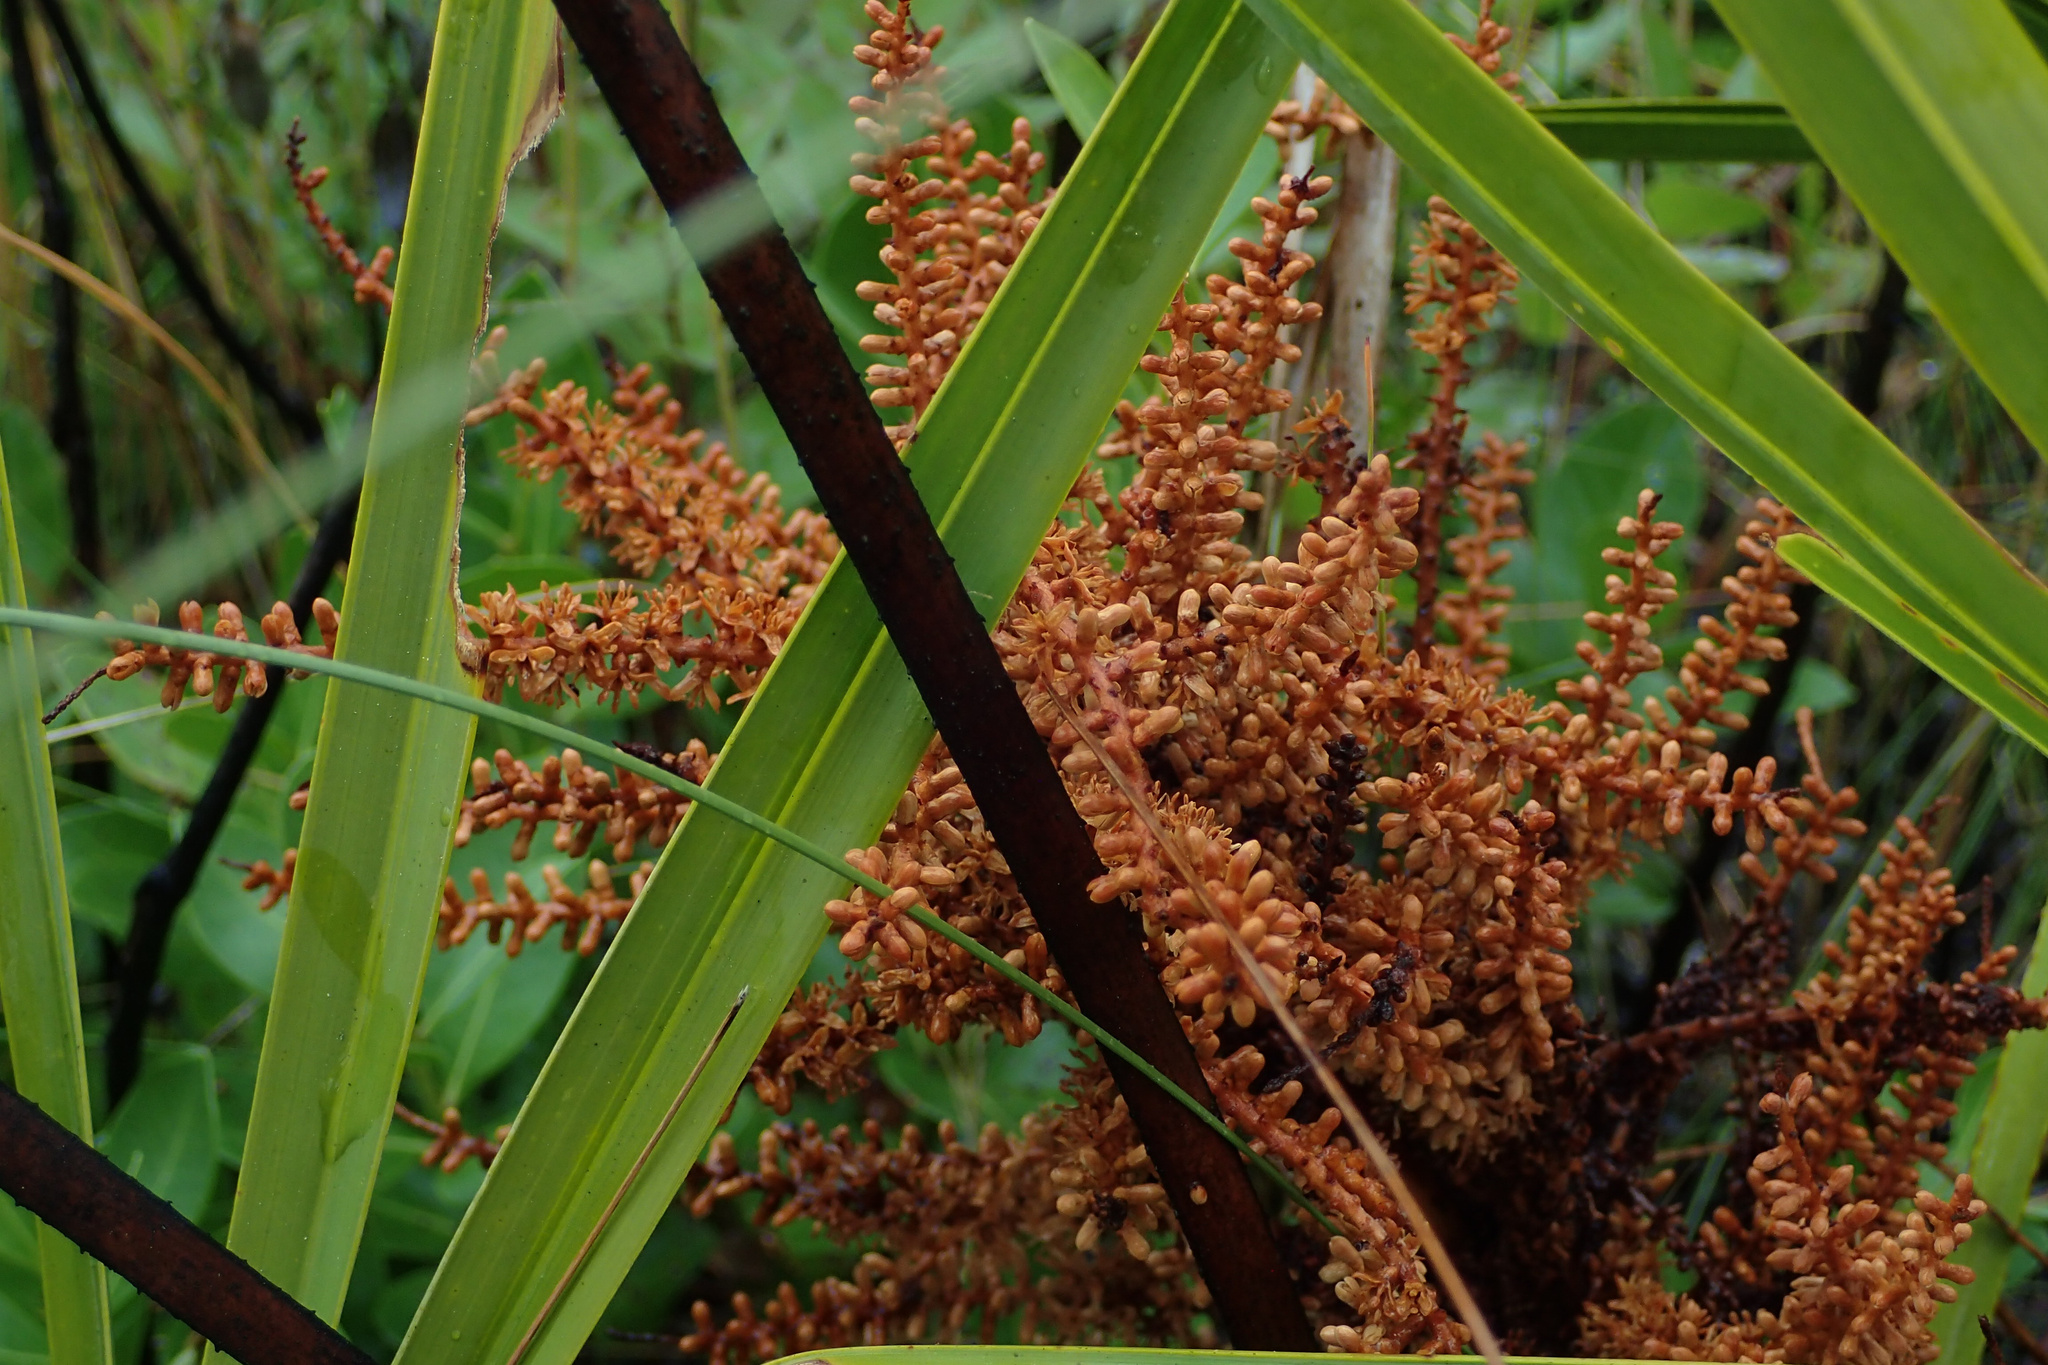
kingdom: Plantae
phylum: Tracheophyta
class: Liliopsida
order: Arecales
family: Arecaceae
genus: Serenoa
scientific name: Serenoa repens
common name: Saw-palmetto
